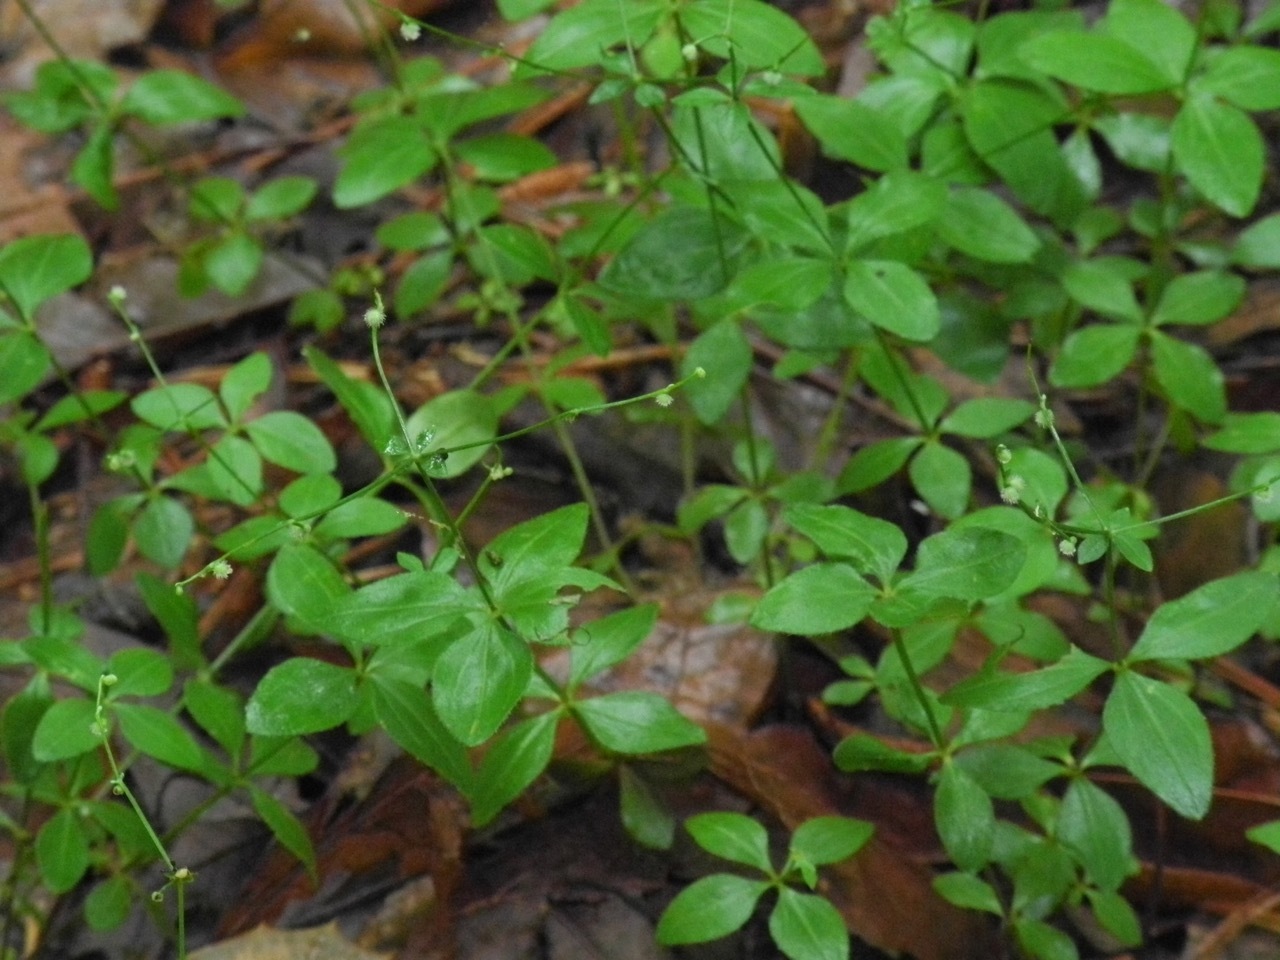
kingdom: Plantae
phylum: Tracheophyta
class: Magnoliopsida
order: Gentianales
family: Rubiaceae
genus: Galium
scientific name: Galium circaezans
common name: Forest bedstraw
